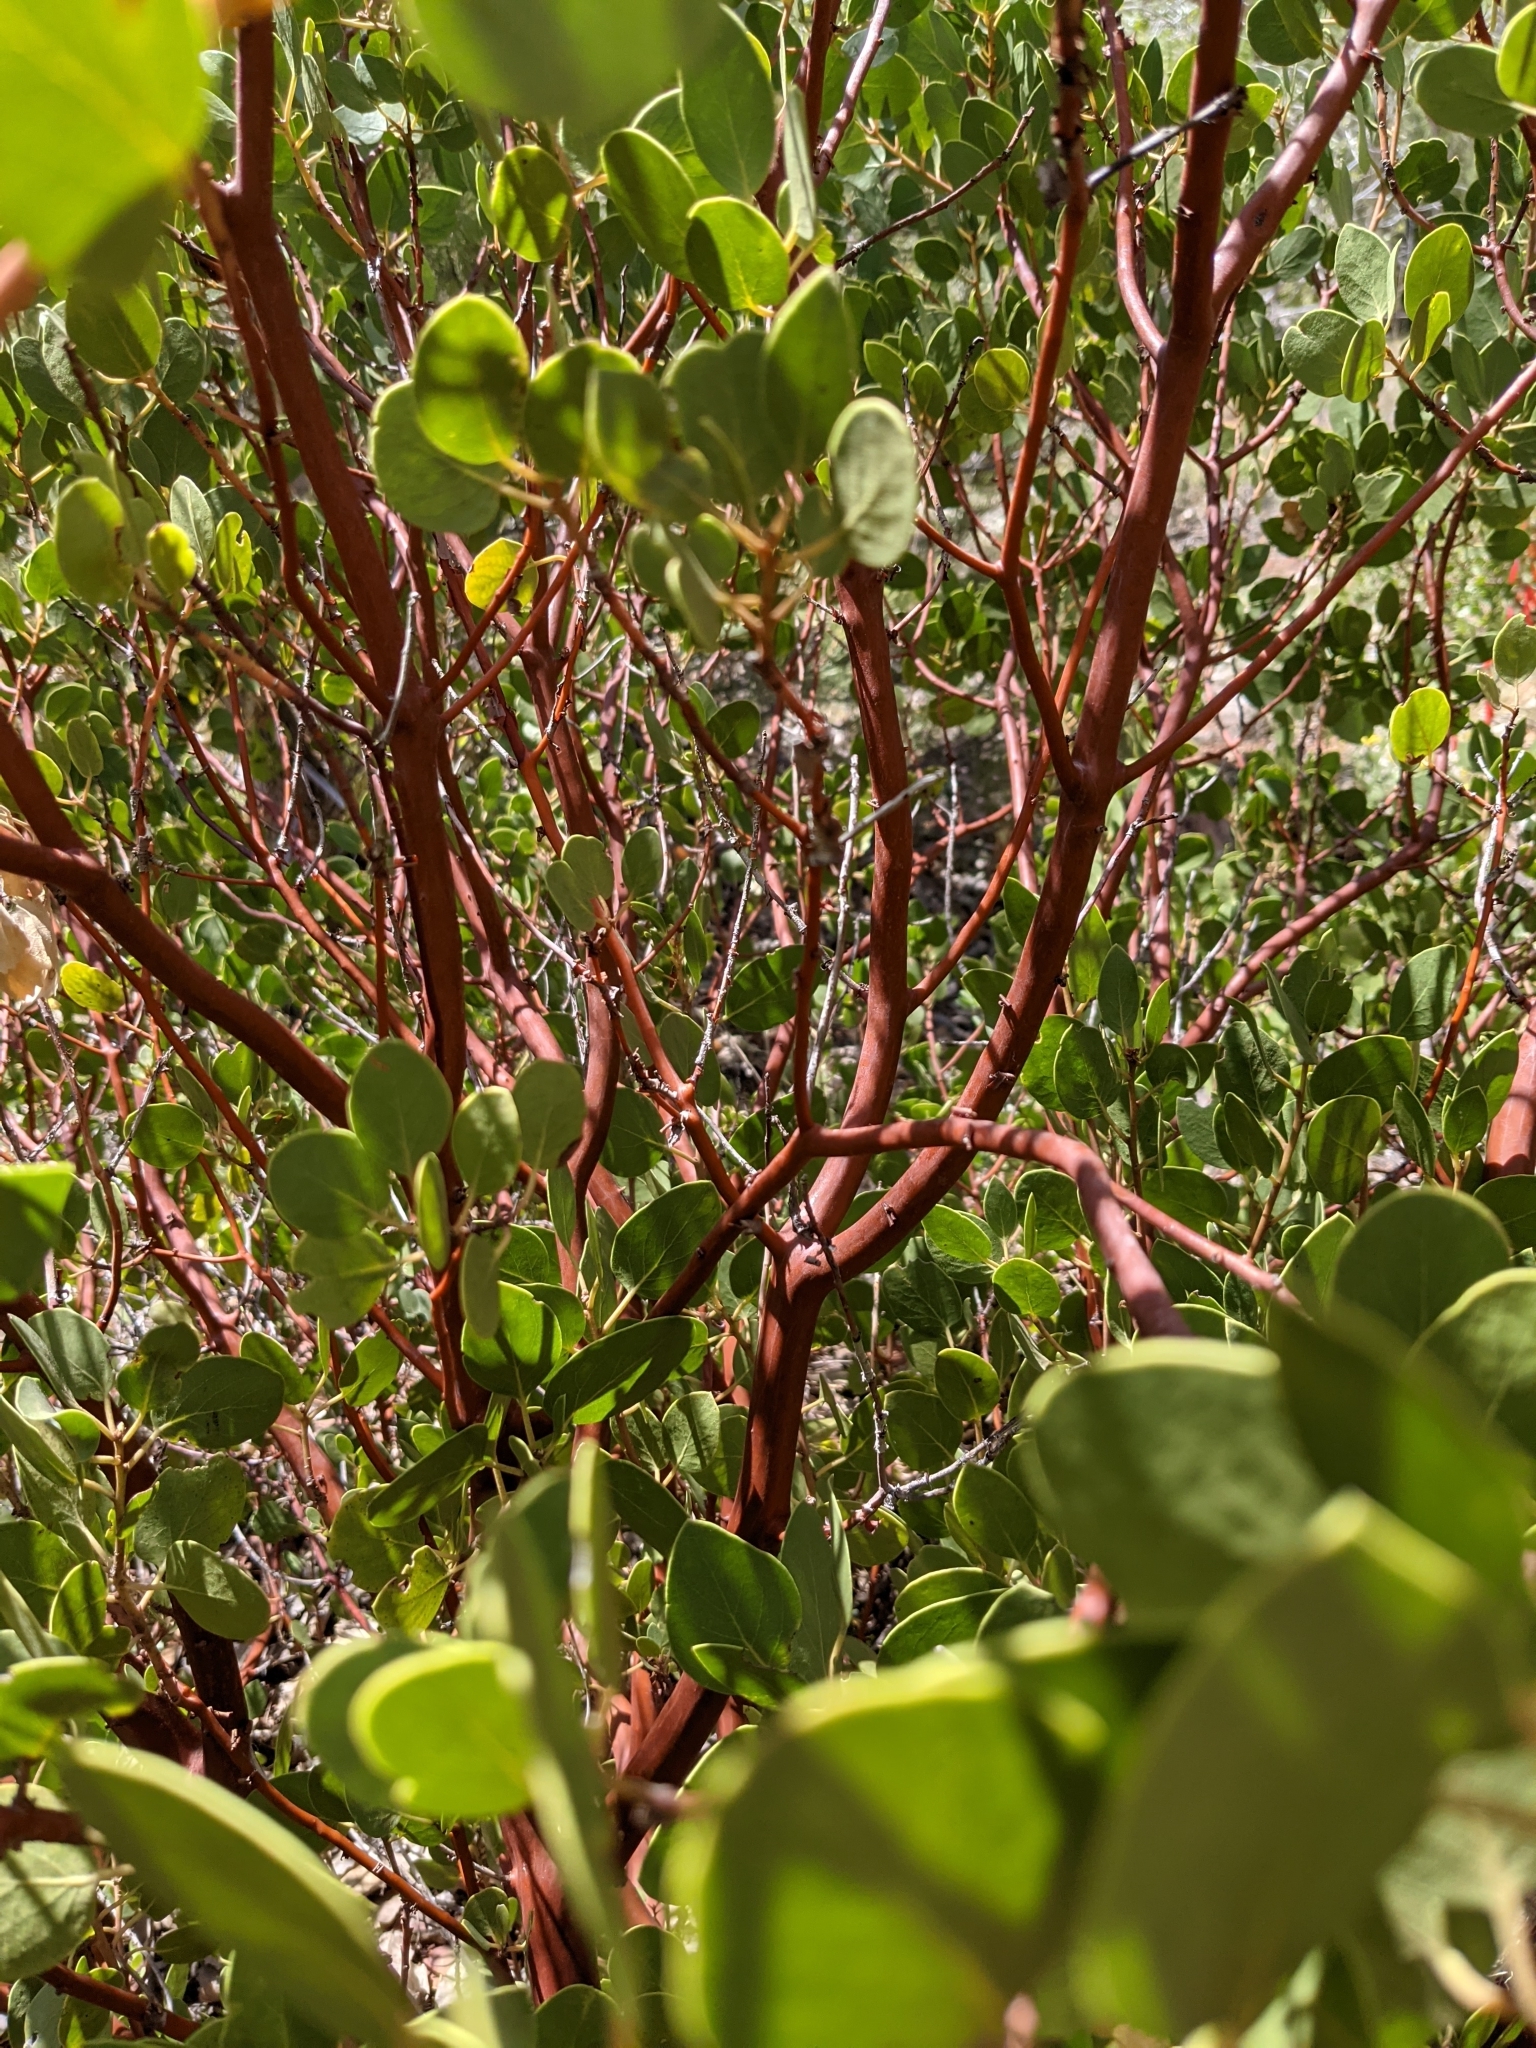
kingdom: Plantae
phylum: Tracheophyta
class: Magnoliopsida
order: Ericales
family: Ericaceae
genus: Arctostaphylos
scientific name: Arctostaphylos patula
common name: Green-leaf manzanita
